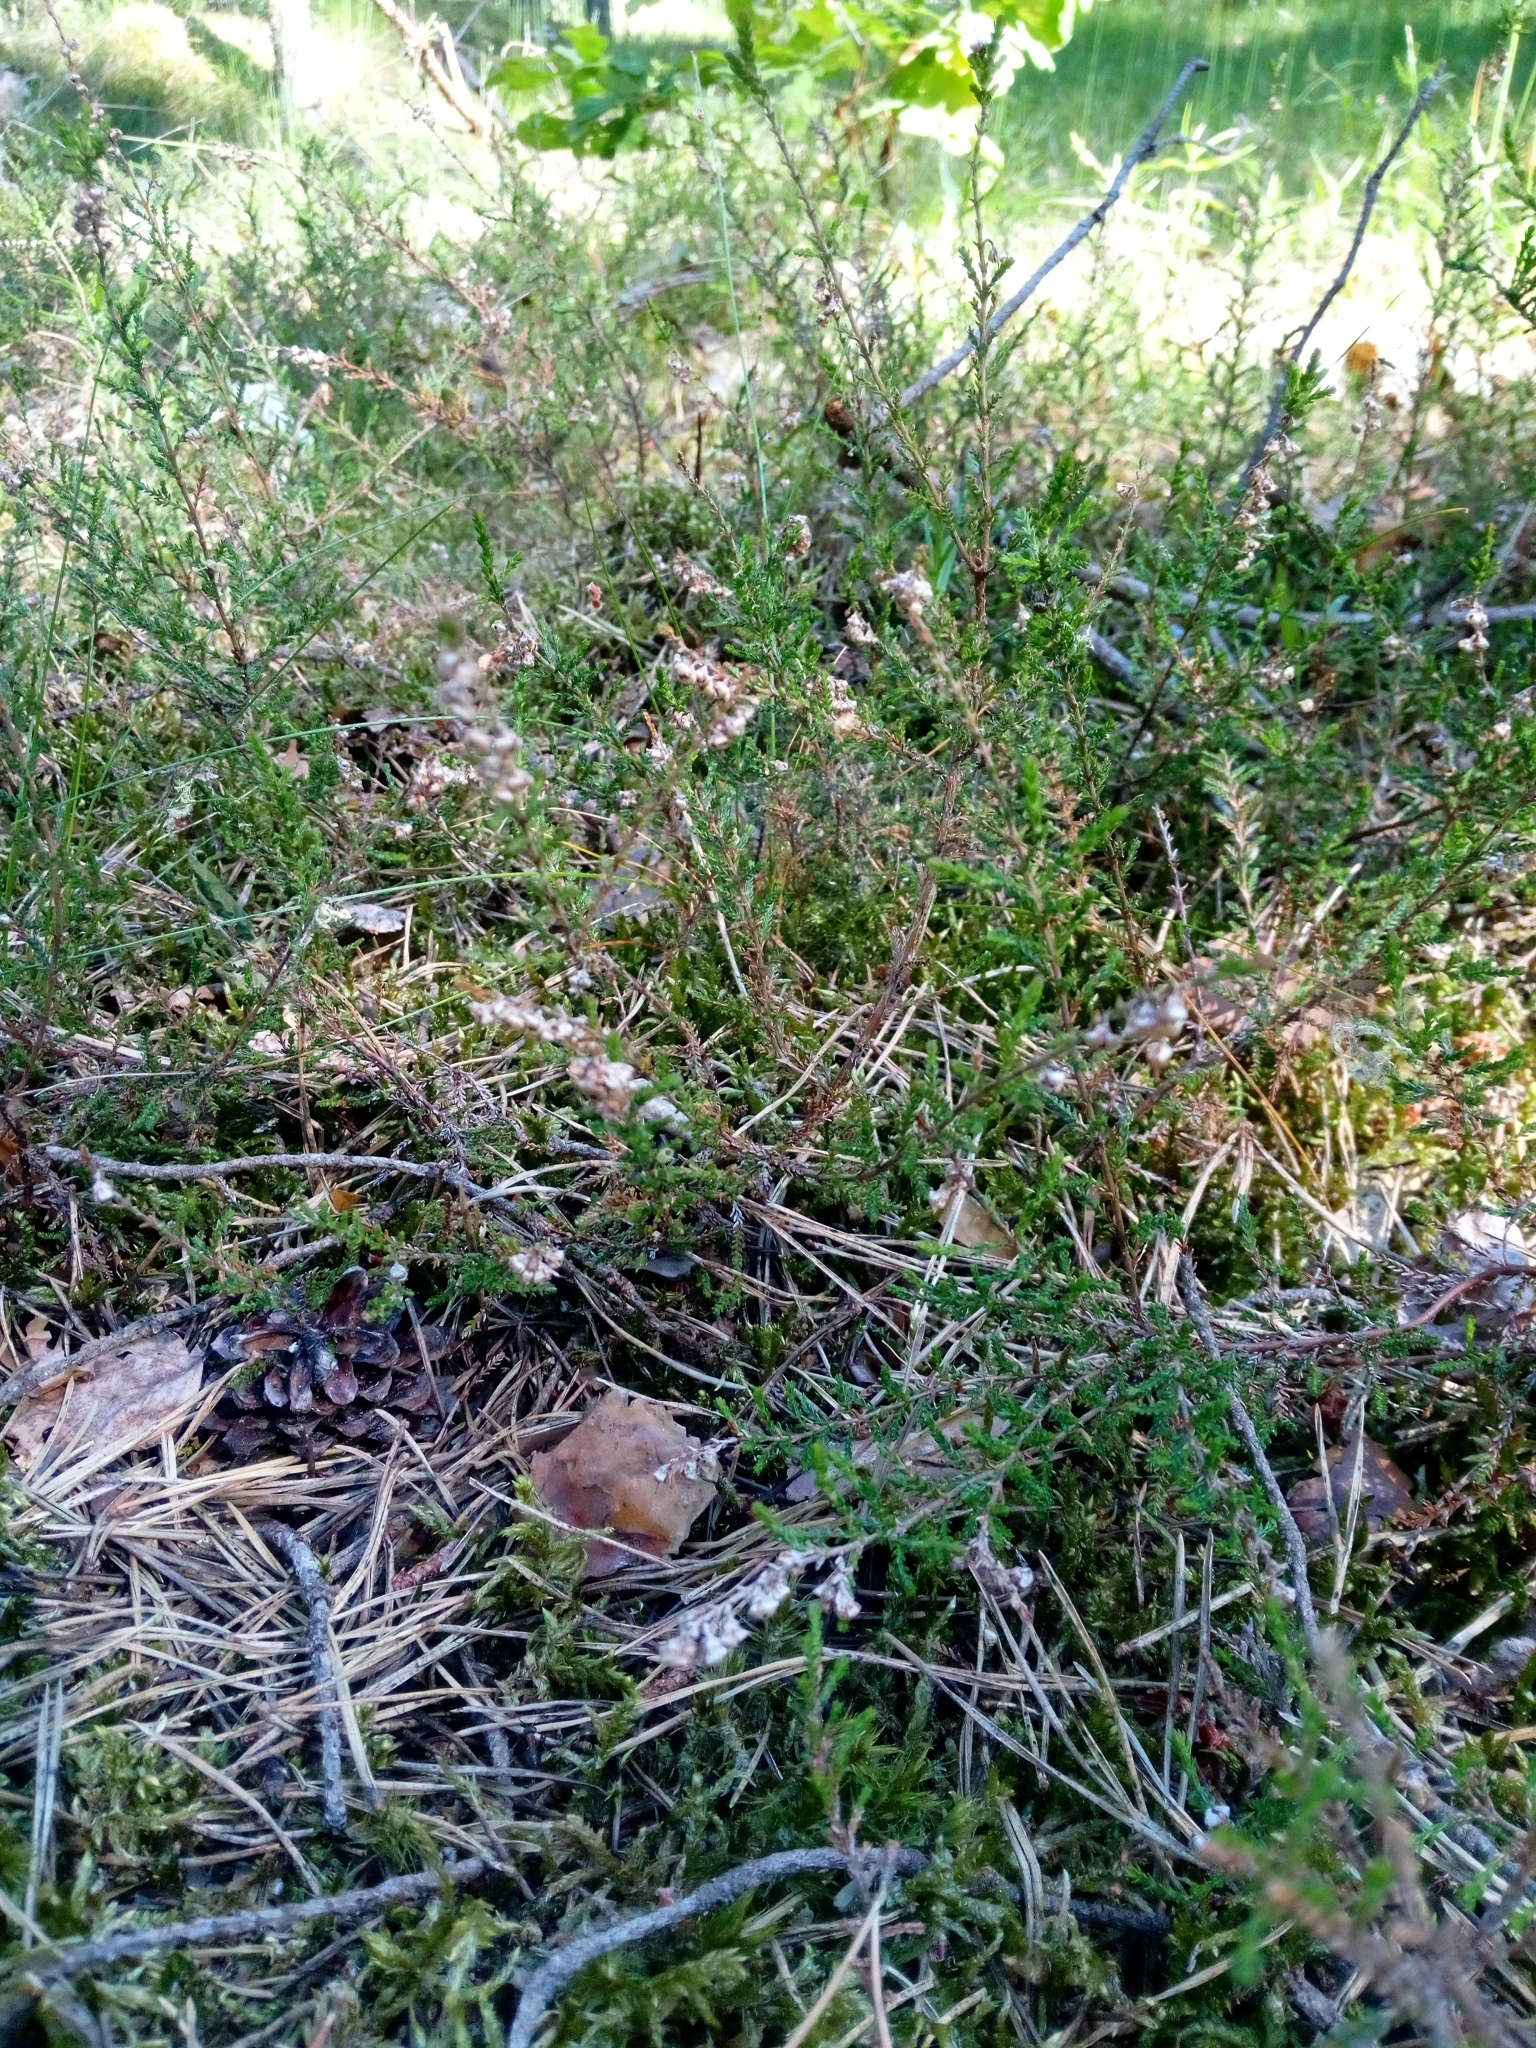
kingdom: Plantae
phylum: Tracheophyta
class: Magnoliopsida
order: Ericales
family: Ericaceae
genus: Calluna
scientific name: Calluna vulgaris
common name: Heather
